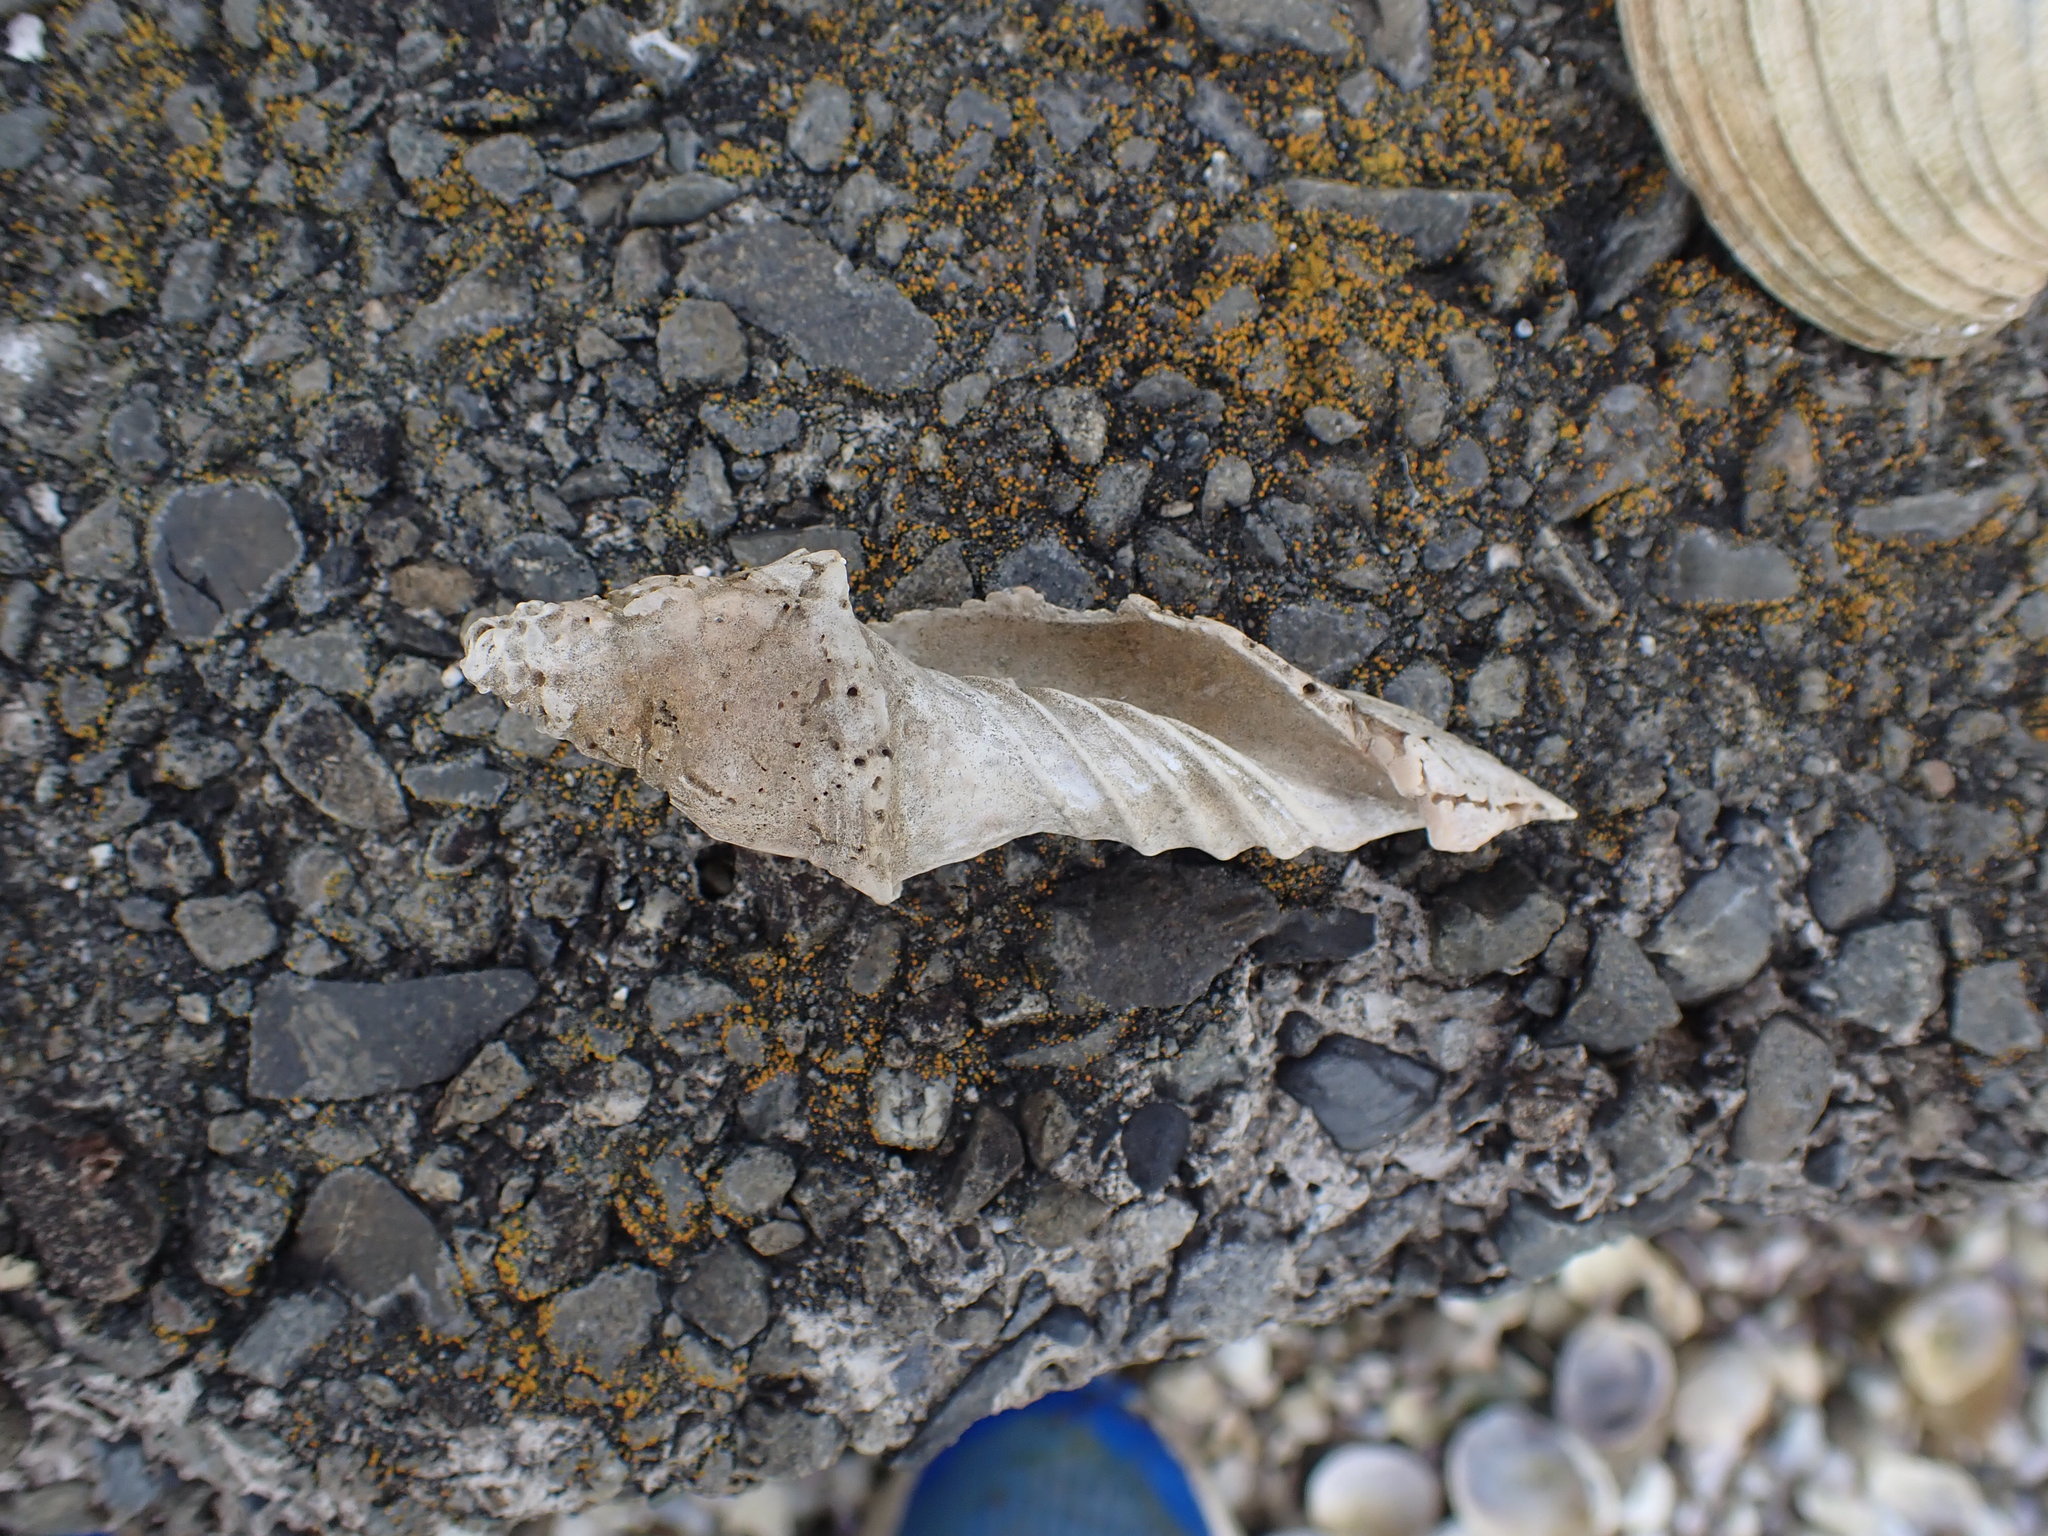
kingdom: Animalia
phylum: Mollusca
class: Gastropoda
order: Neogastropoda
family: Volutidae
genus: Alcithoe
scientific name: Alcithoe arabica
